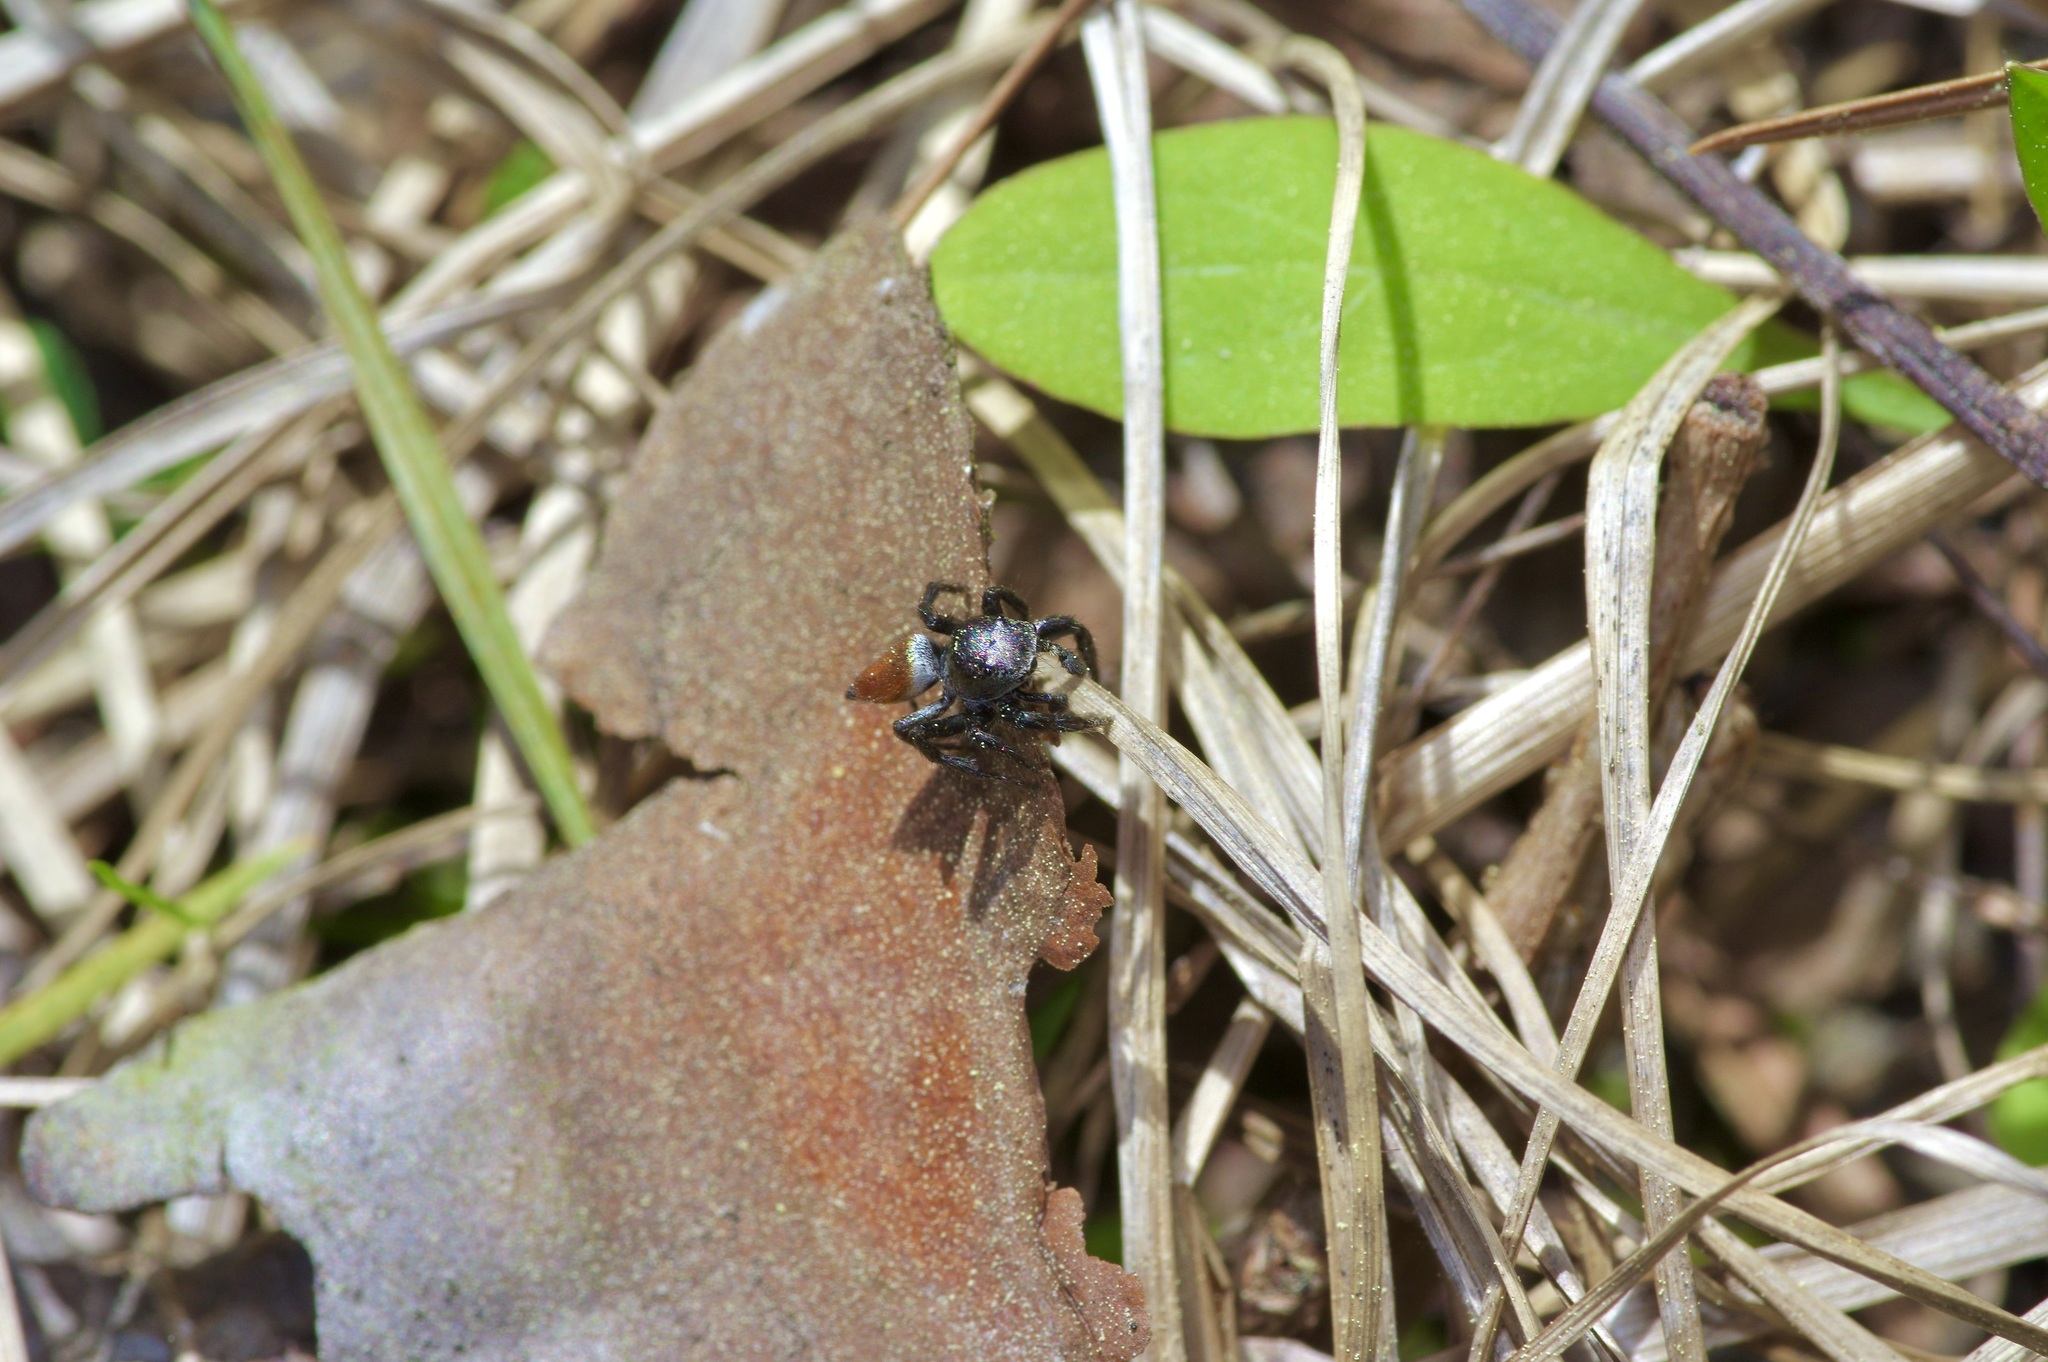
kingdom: Animalia
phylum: Arthropoda
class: Arachnida
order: Araneae
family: Salticidae
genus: Habronattus
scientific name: Habronattus decorus
